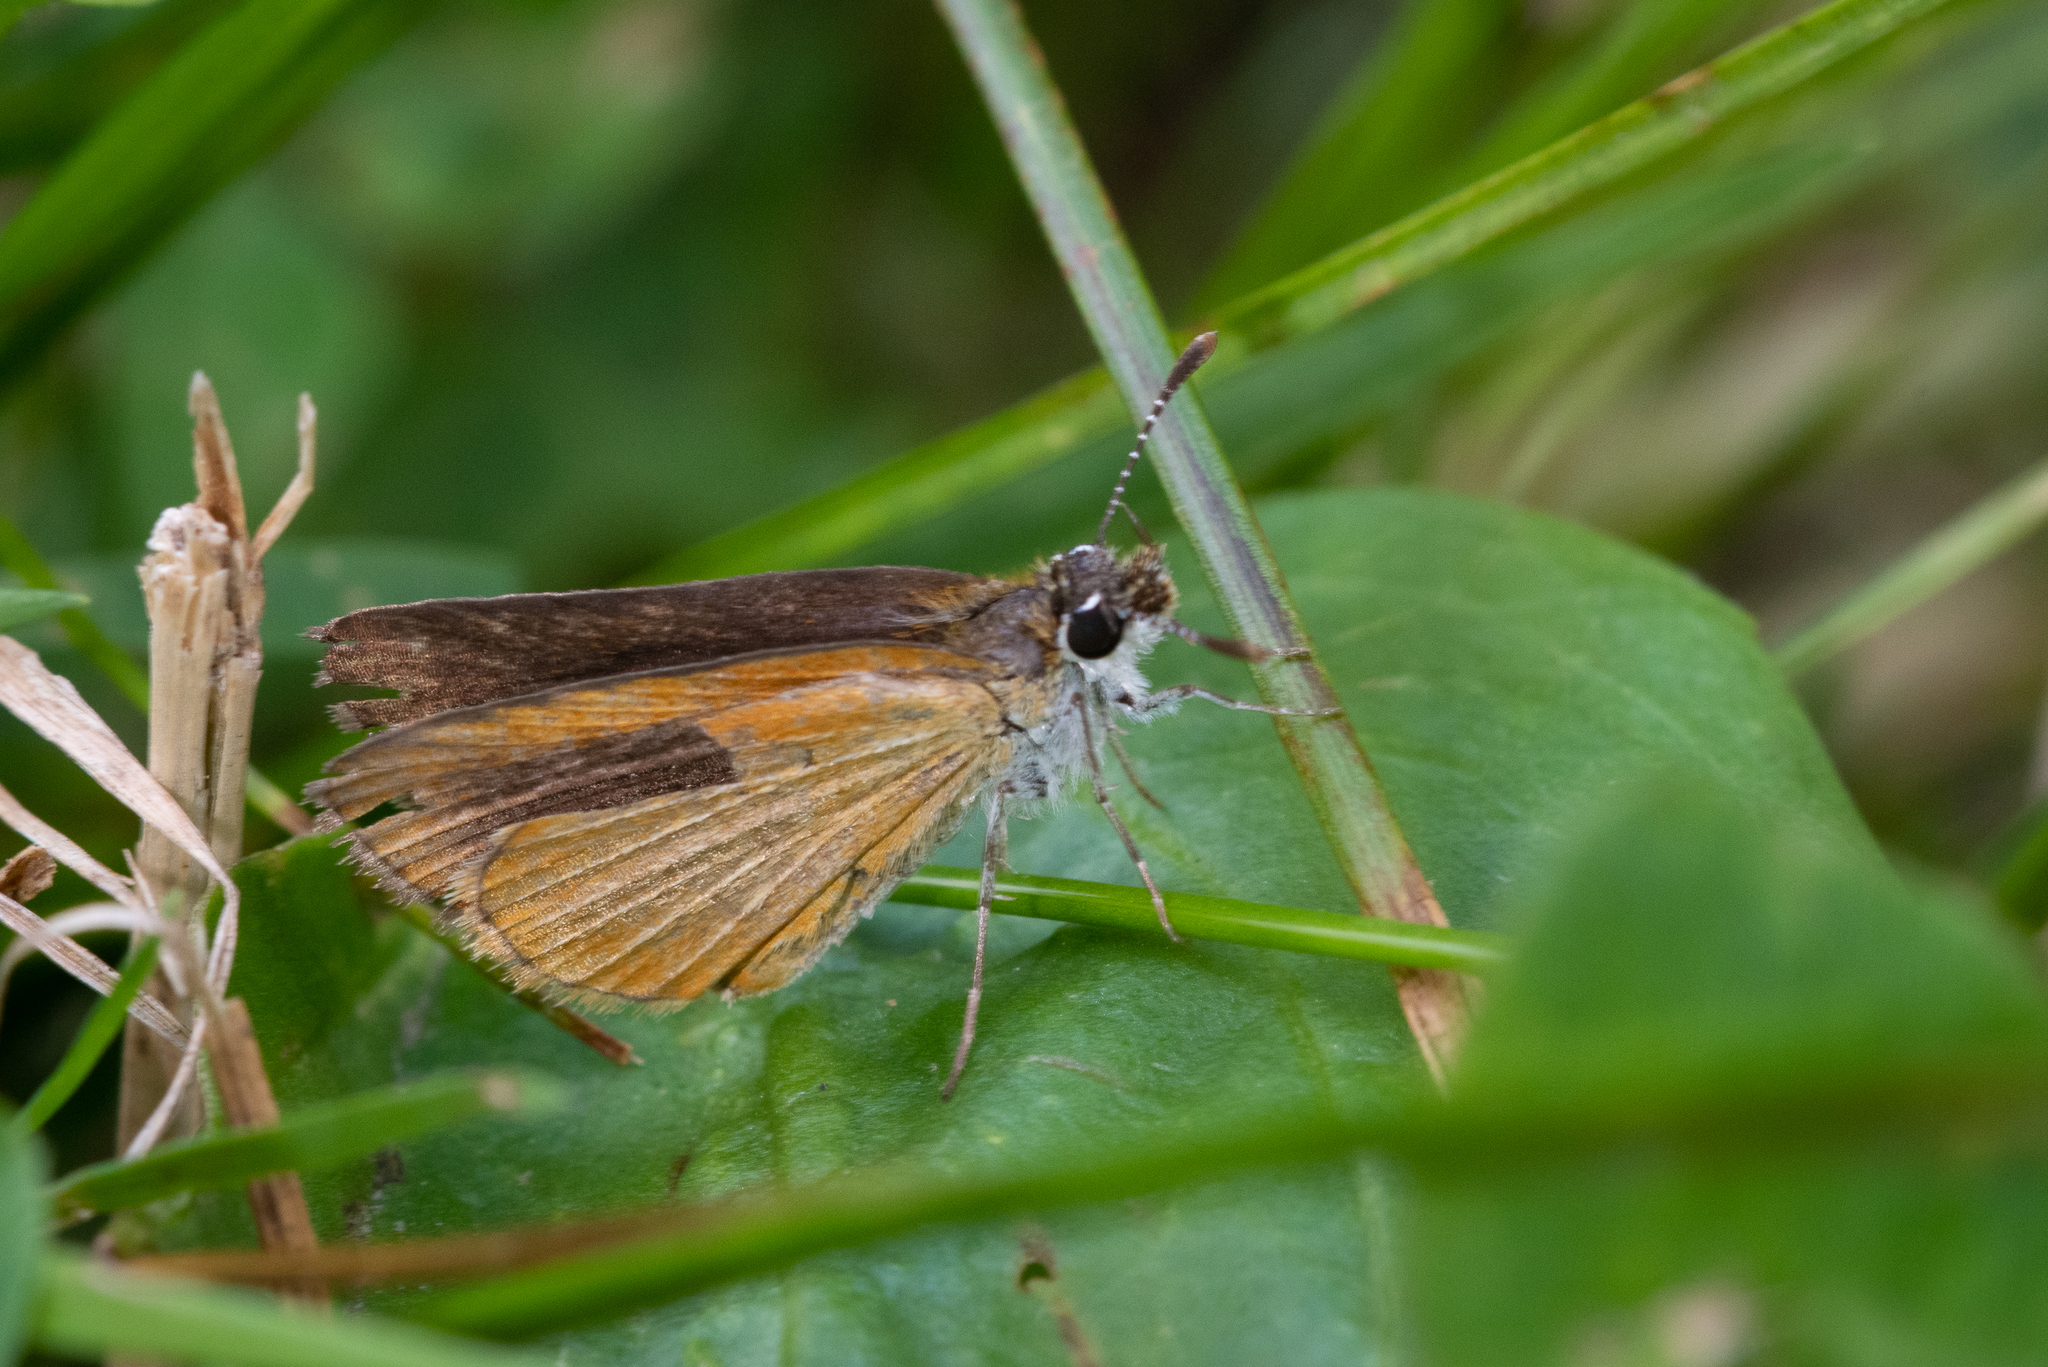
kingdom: Animalia
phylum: Arthropoda
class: Insecta
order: Lepidoptera
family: Hesperiidae
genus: Ancyloxypha
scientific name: Ancyloxypha numitor
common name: Least skipper
